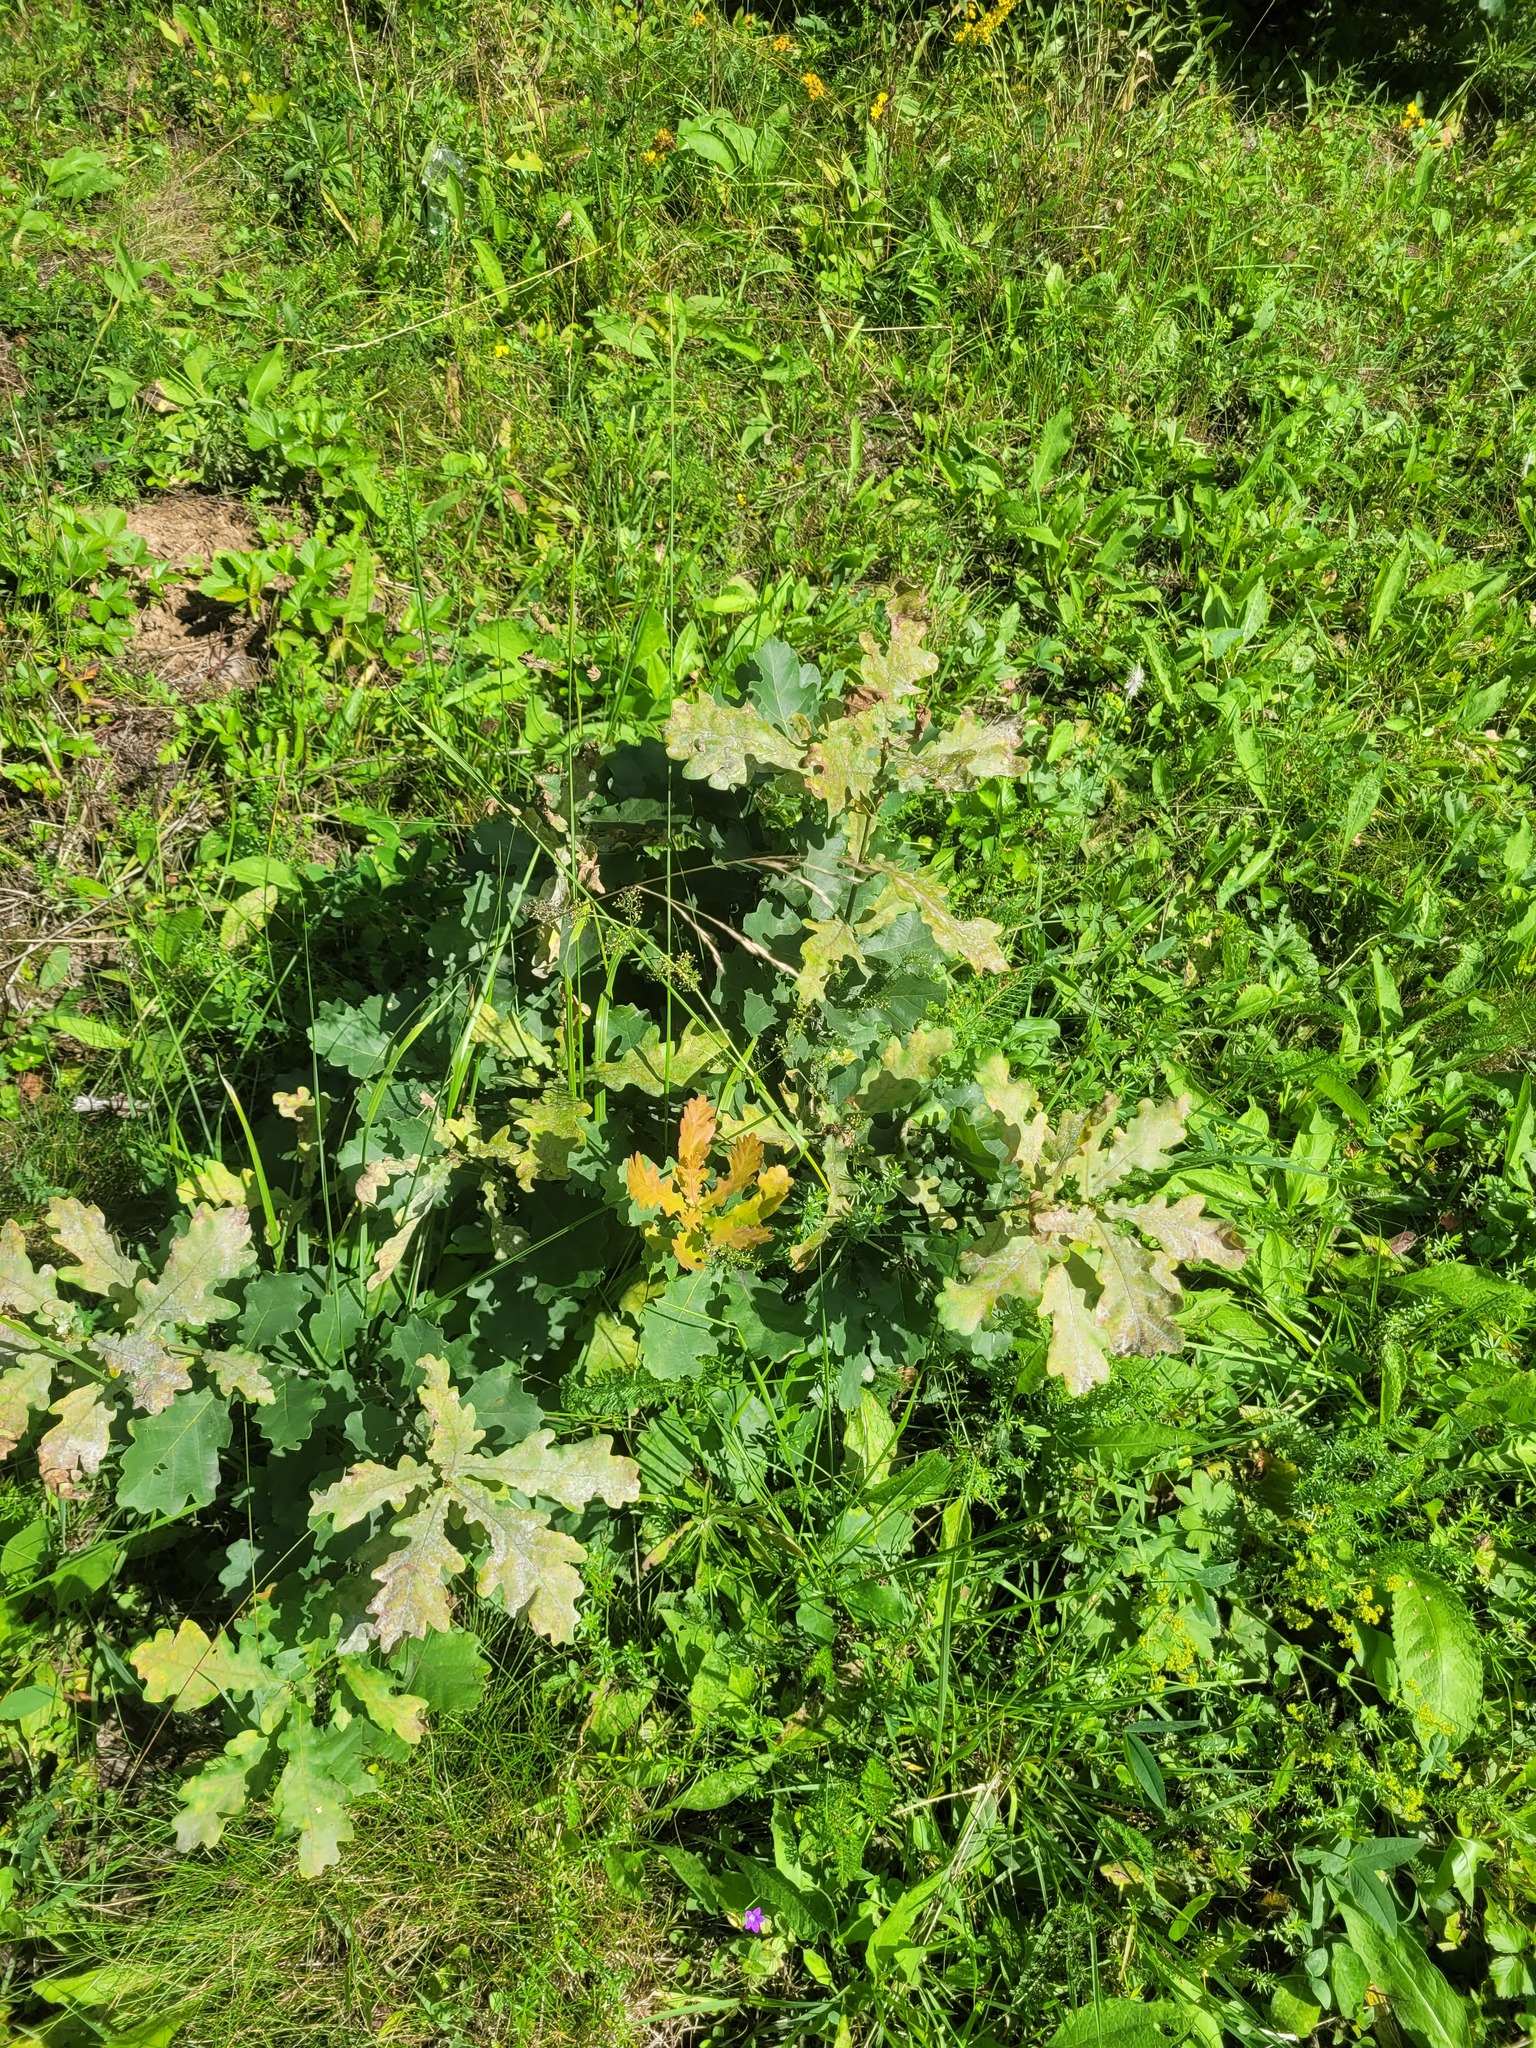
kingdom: Plantae
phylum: Tracheophyta
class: Magnoliopsida
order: Fagales
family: Fagaceae
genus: Quercus
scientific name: Quercus robur
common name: Pedunculate oak
